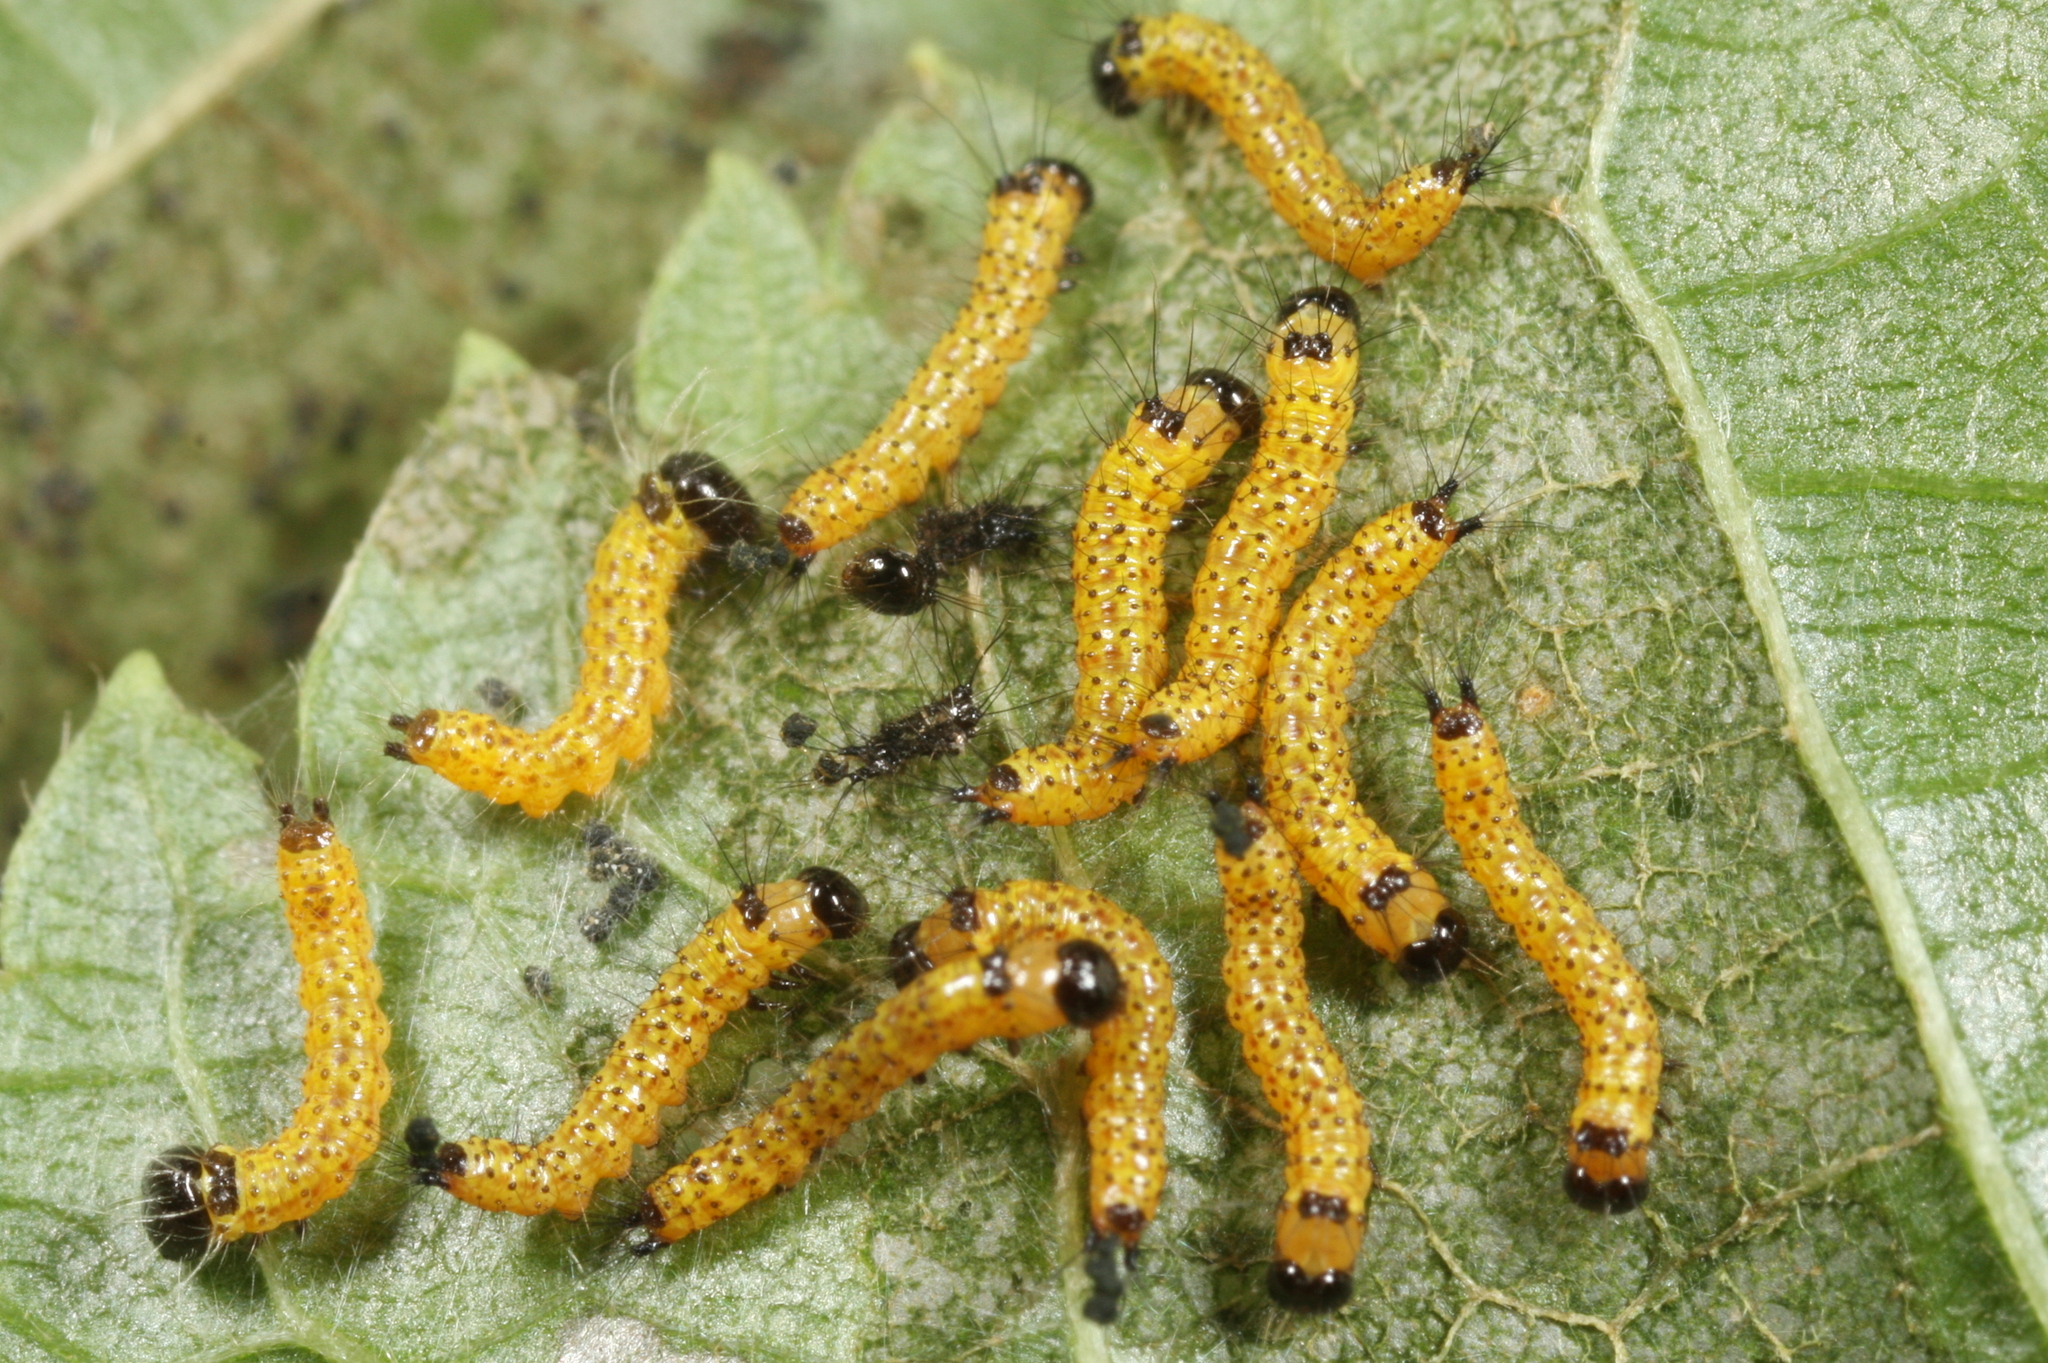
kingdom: Animalia
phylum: Arthropoda
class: Insecta
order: Lepidoptera
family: Notodontidae
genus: Phalera
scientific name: Phalera bucephala
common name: Buff-tip
